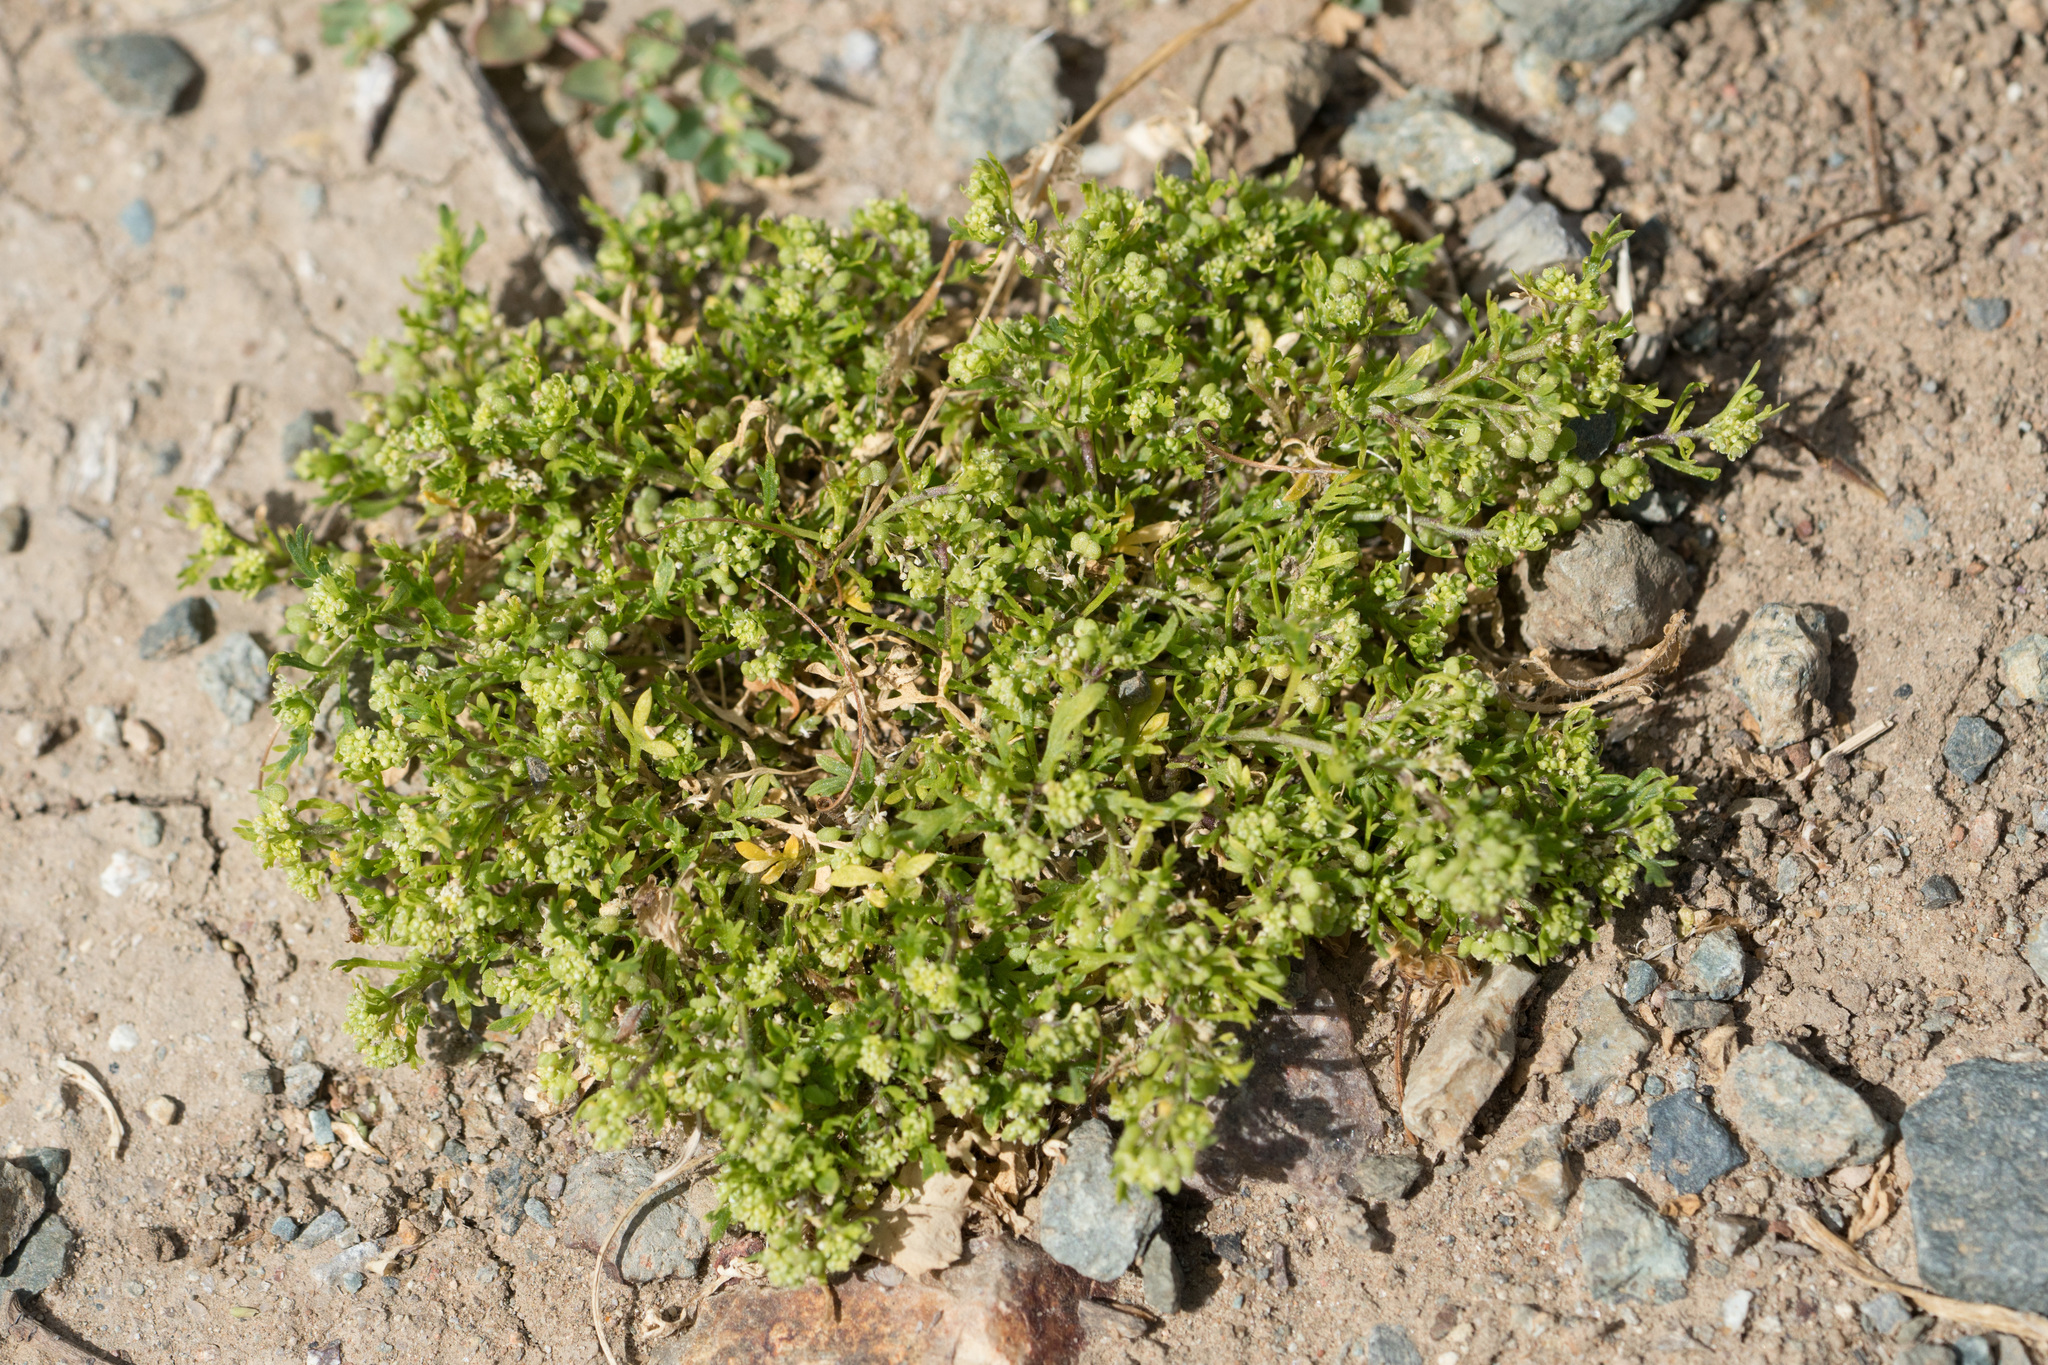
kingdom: Plantae
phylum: Tracheophyta
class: Magnoliopsida
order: Brassicales
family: Brassicaceae
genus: Lepidium
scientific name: Lepidium didymum
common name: Lesser swinecress
